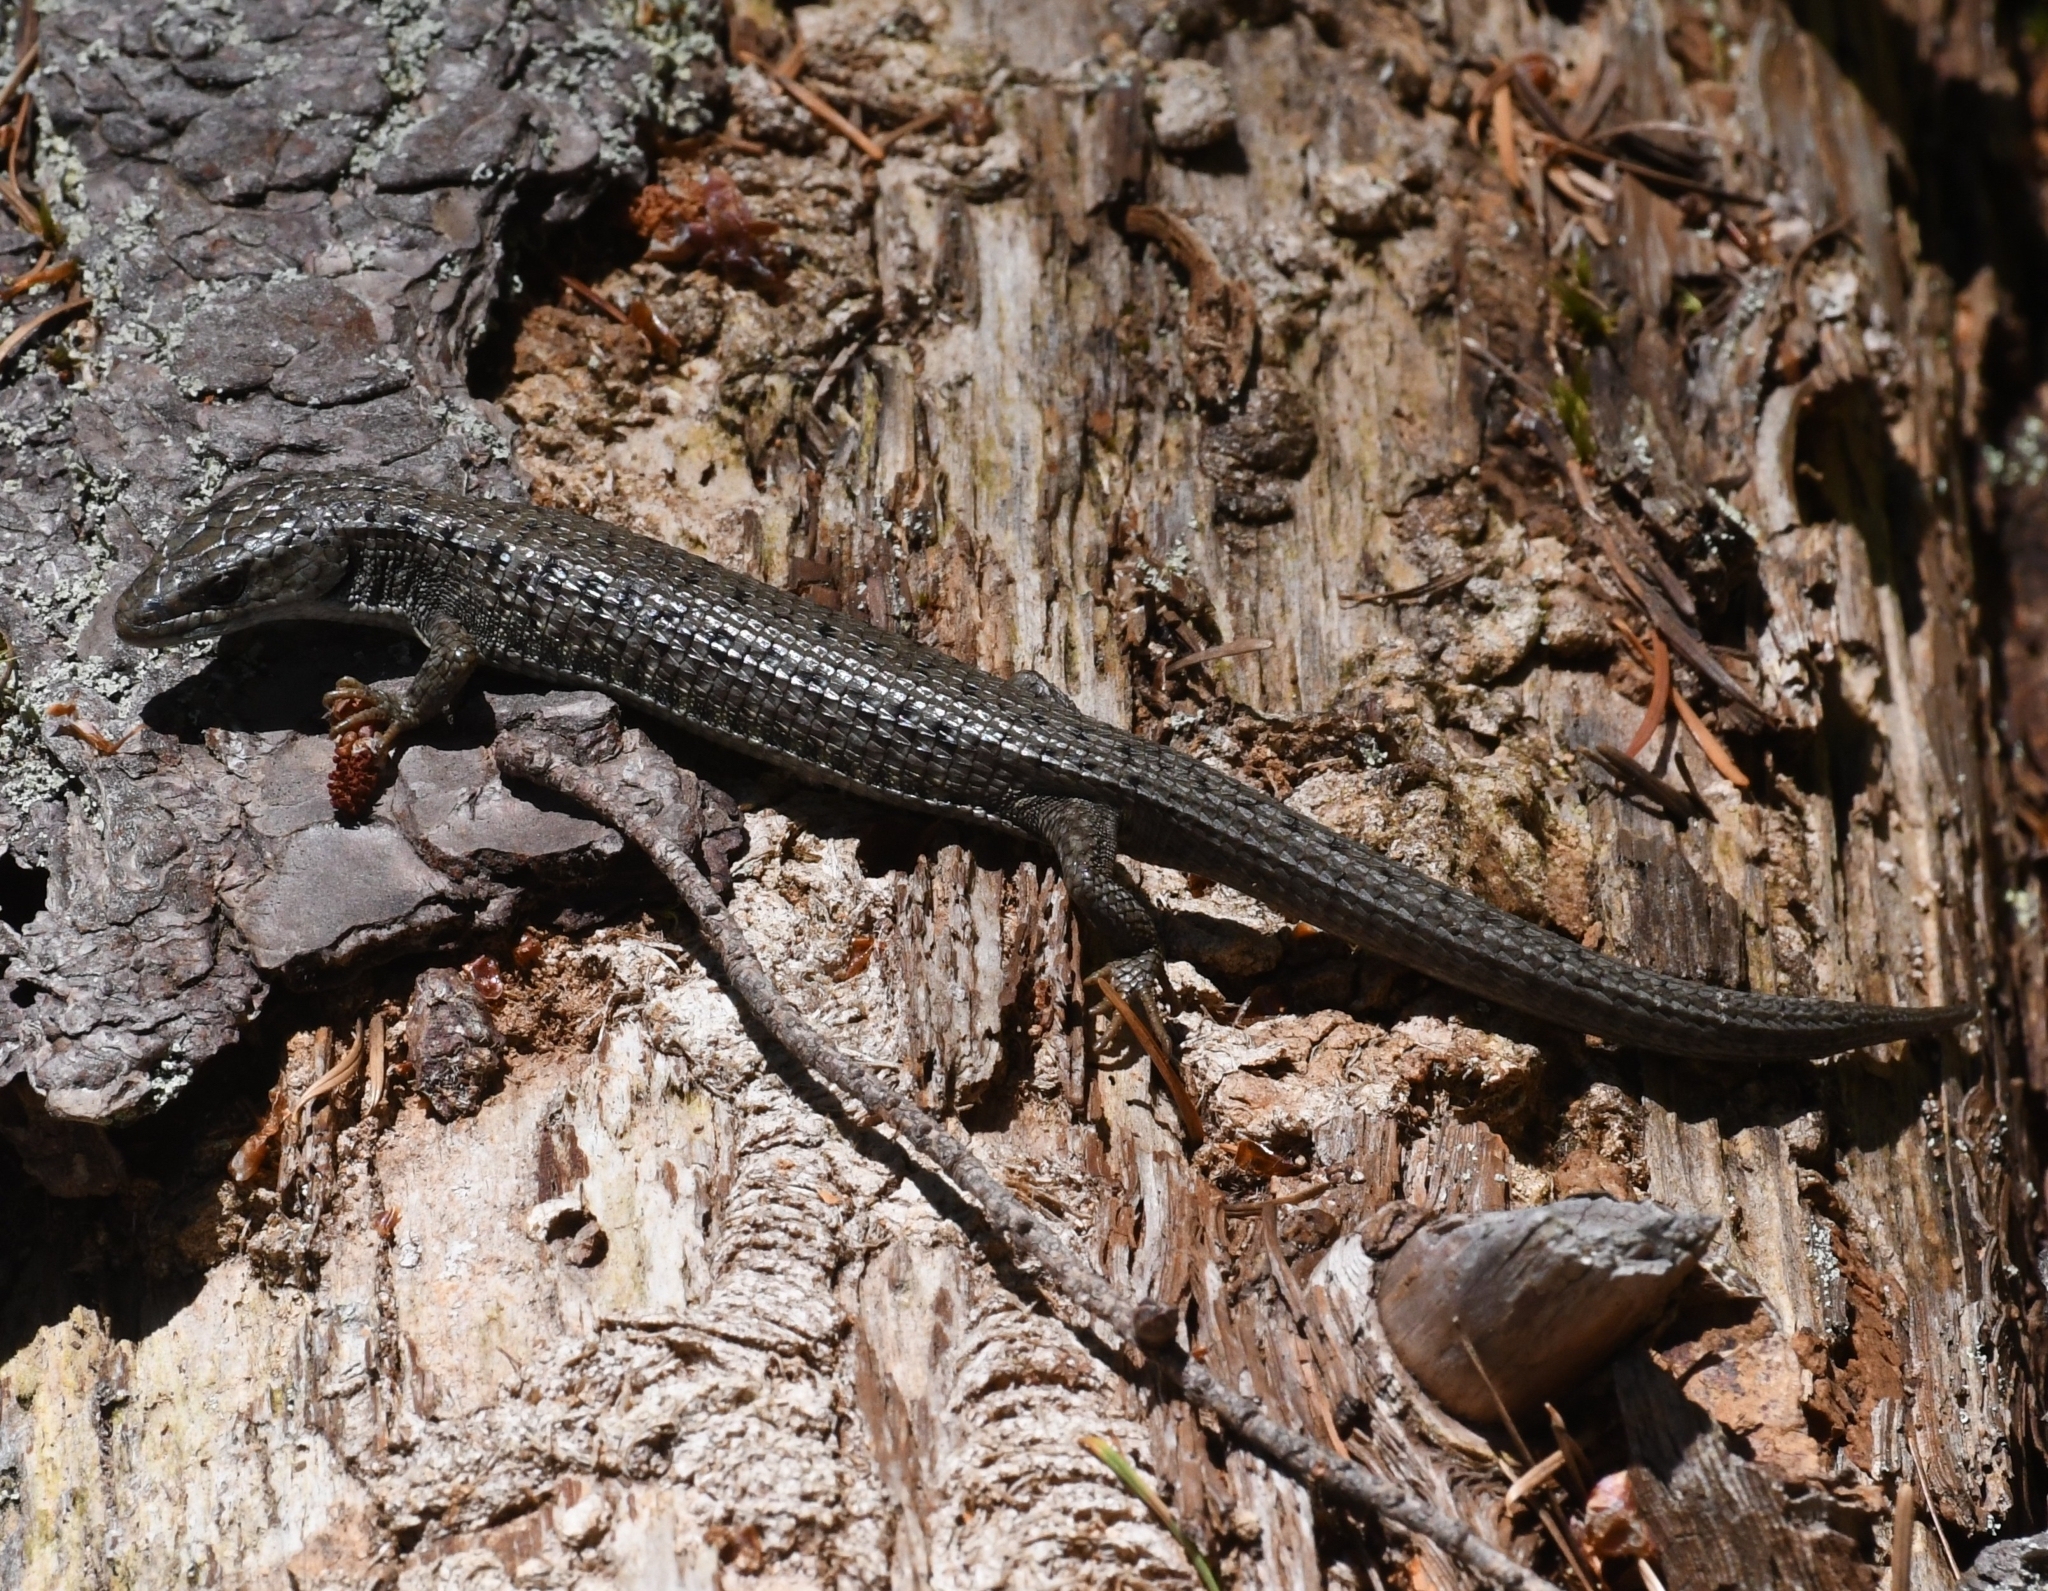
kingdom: Animalia
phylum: Chordata
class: Squamata
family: Anguidae
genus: Elgaria
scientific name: Elgaria coerulea
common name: Northern alligator lizard
